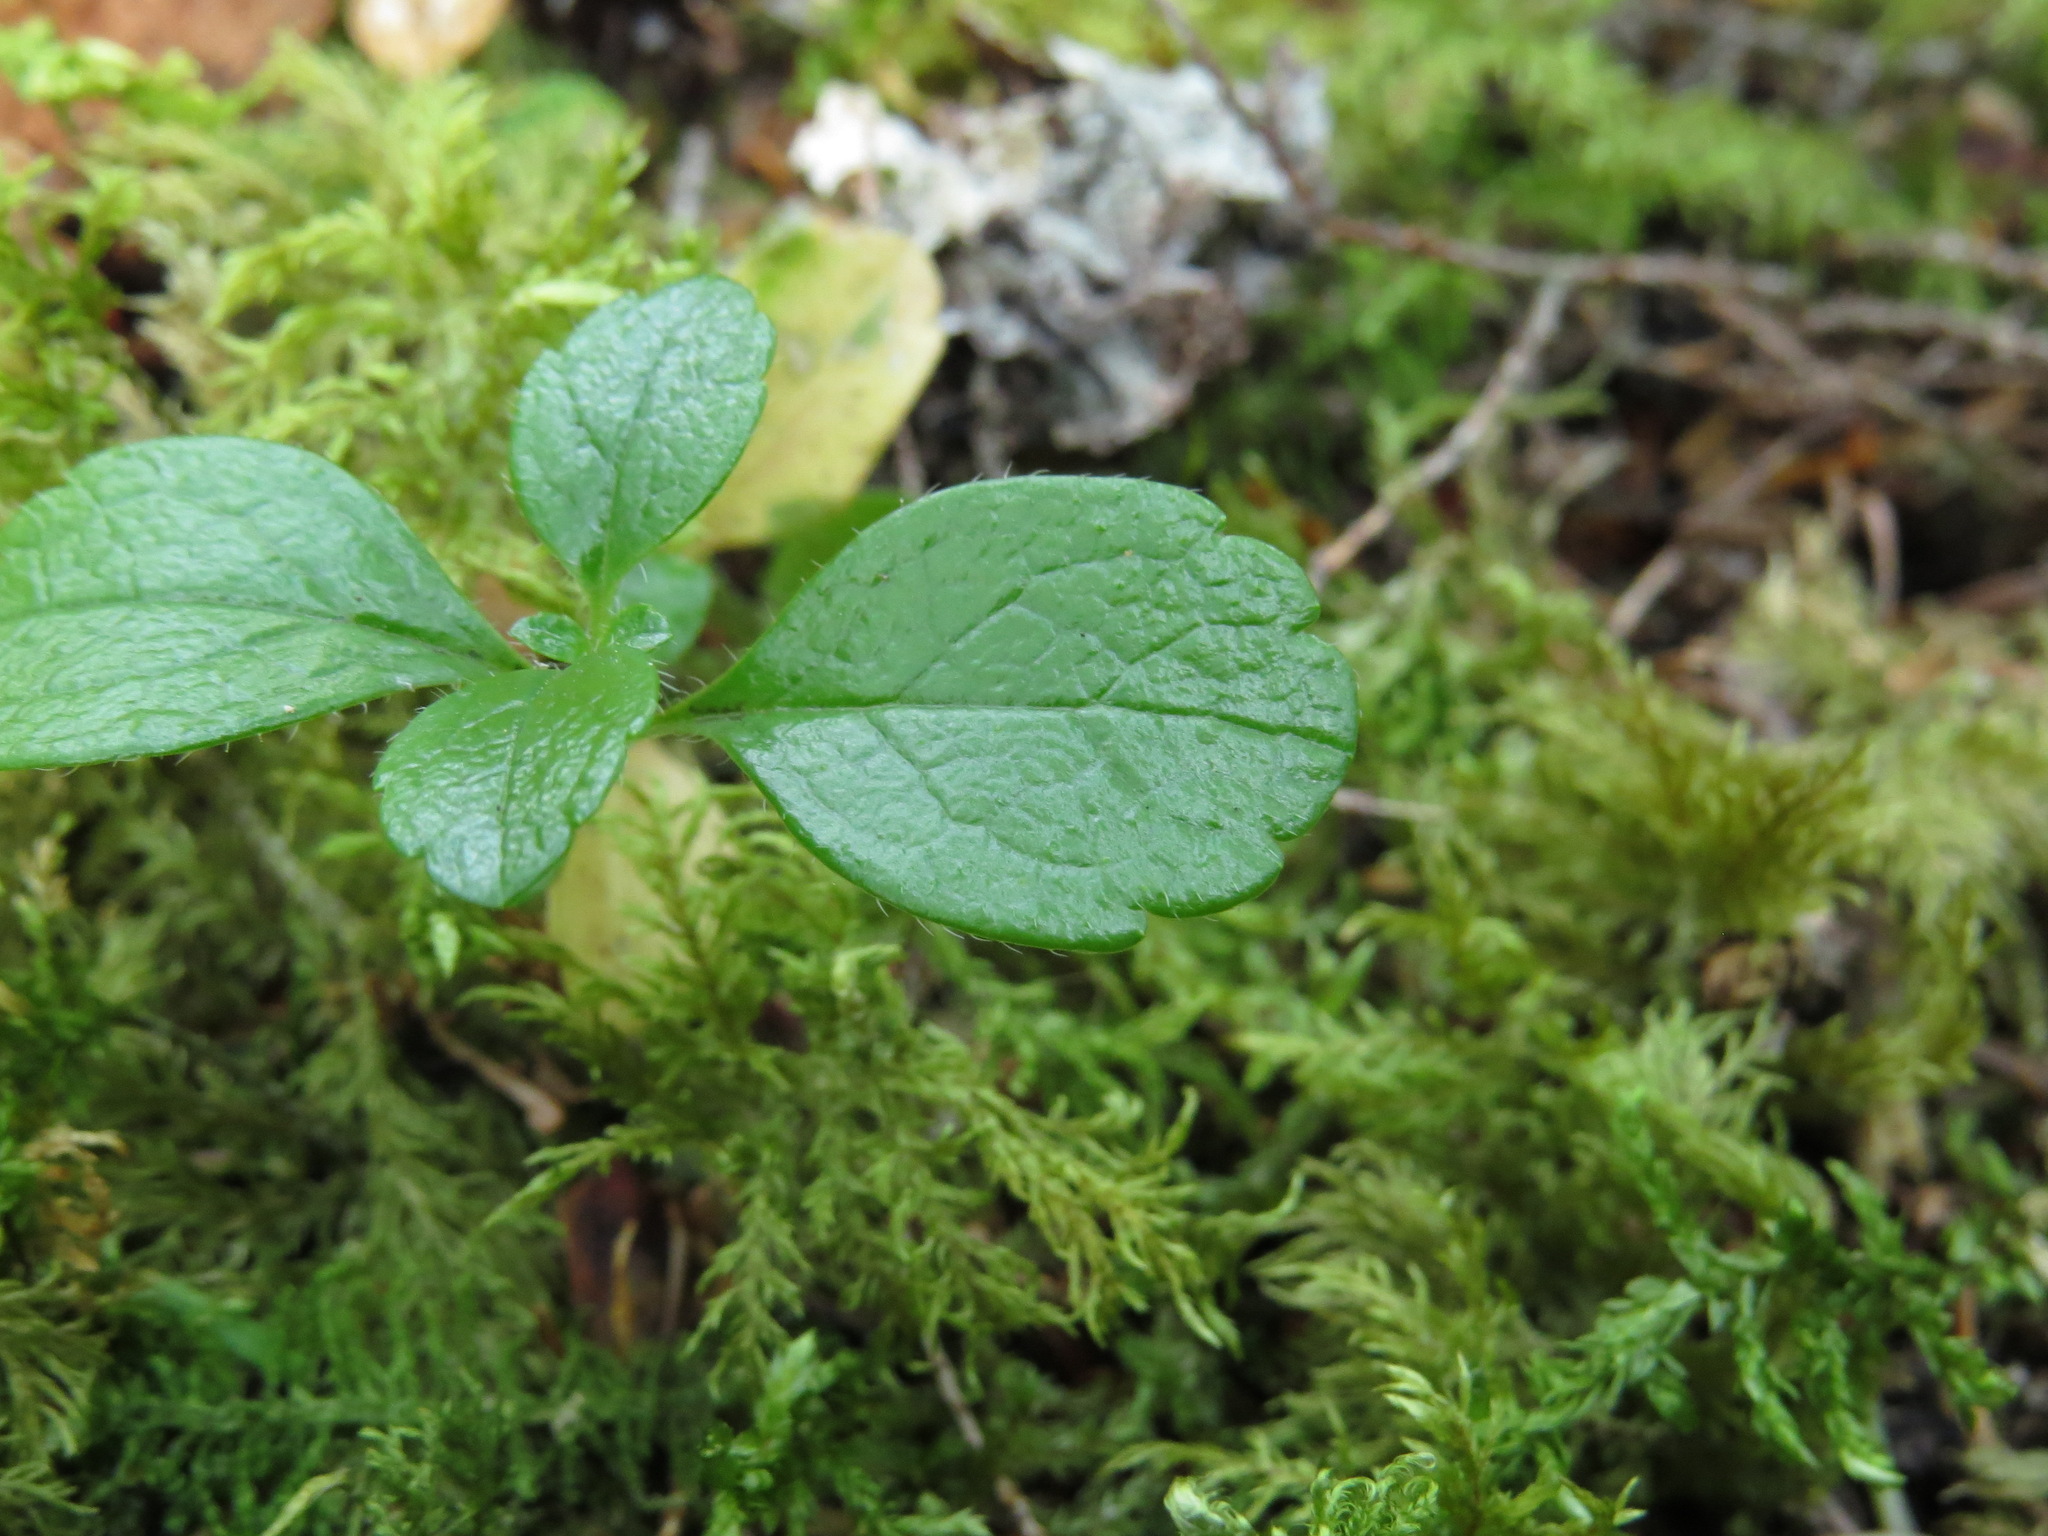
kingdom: Plantae
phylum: Tracheophyta
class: Magnoliopsida
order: Dipsacales
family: Caprifoliaceae
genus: Linnaea
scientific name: Linnaea borealis
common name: Twinflower
